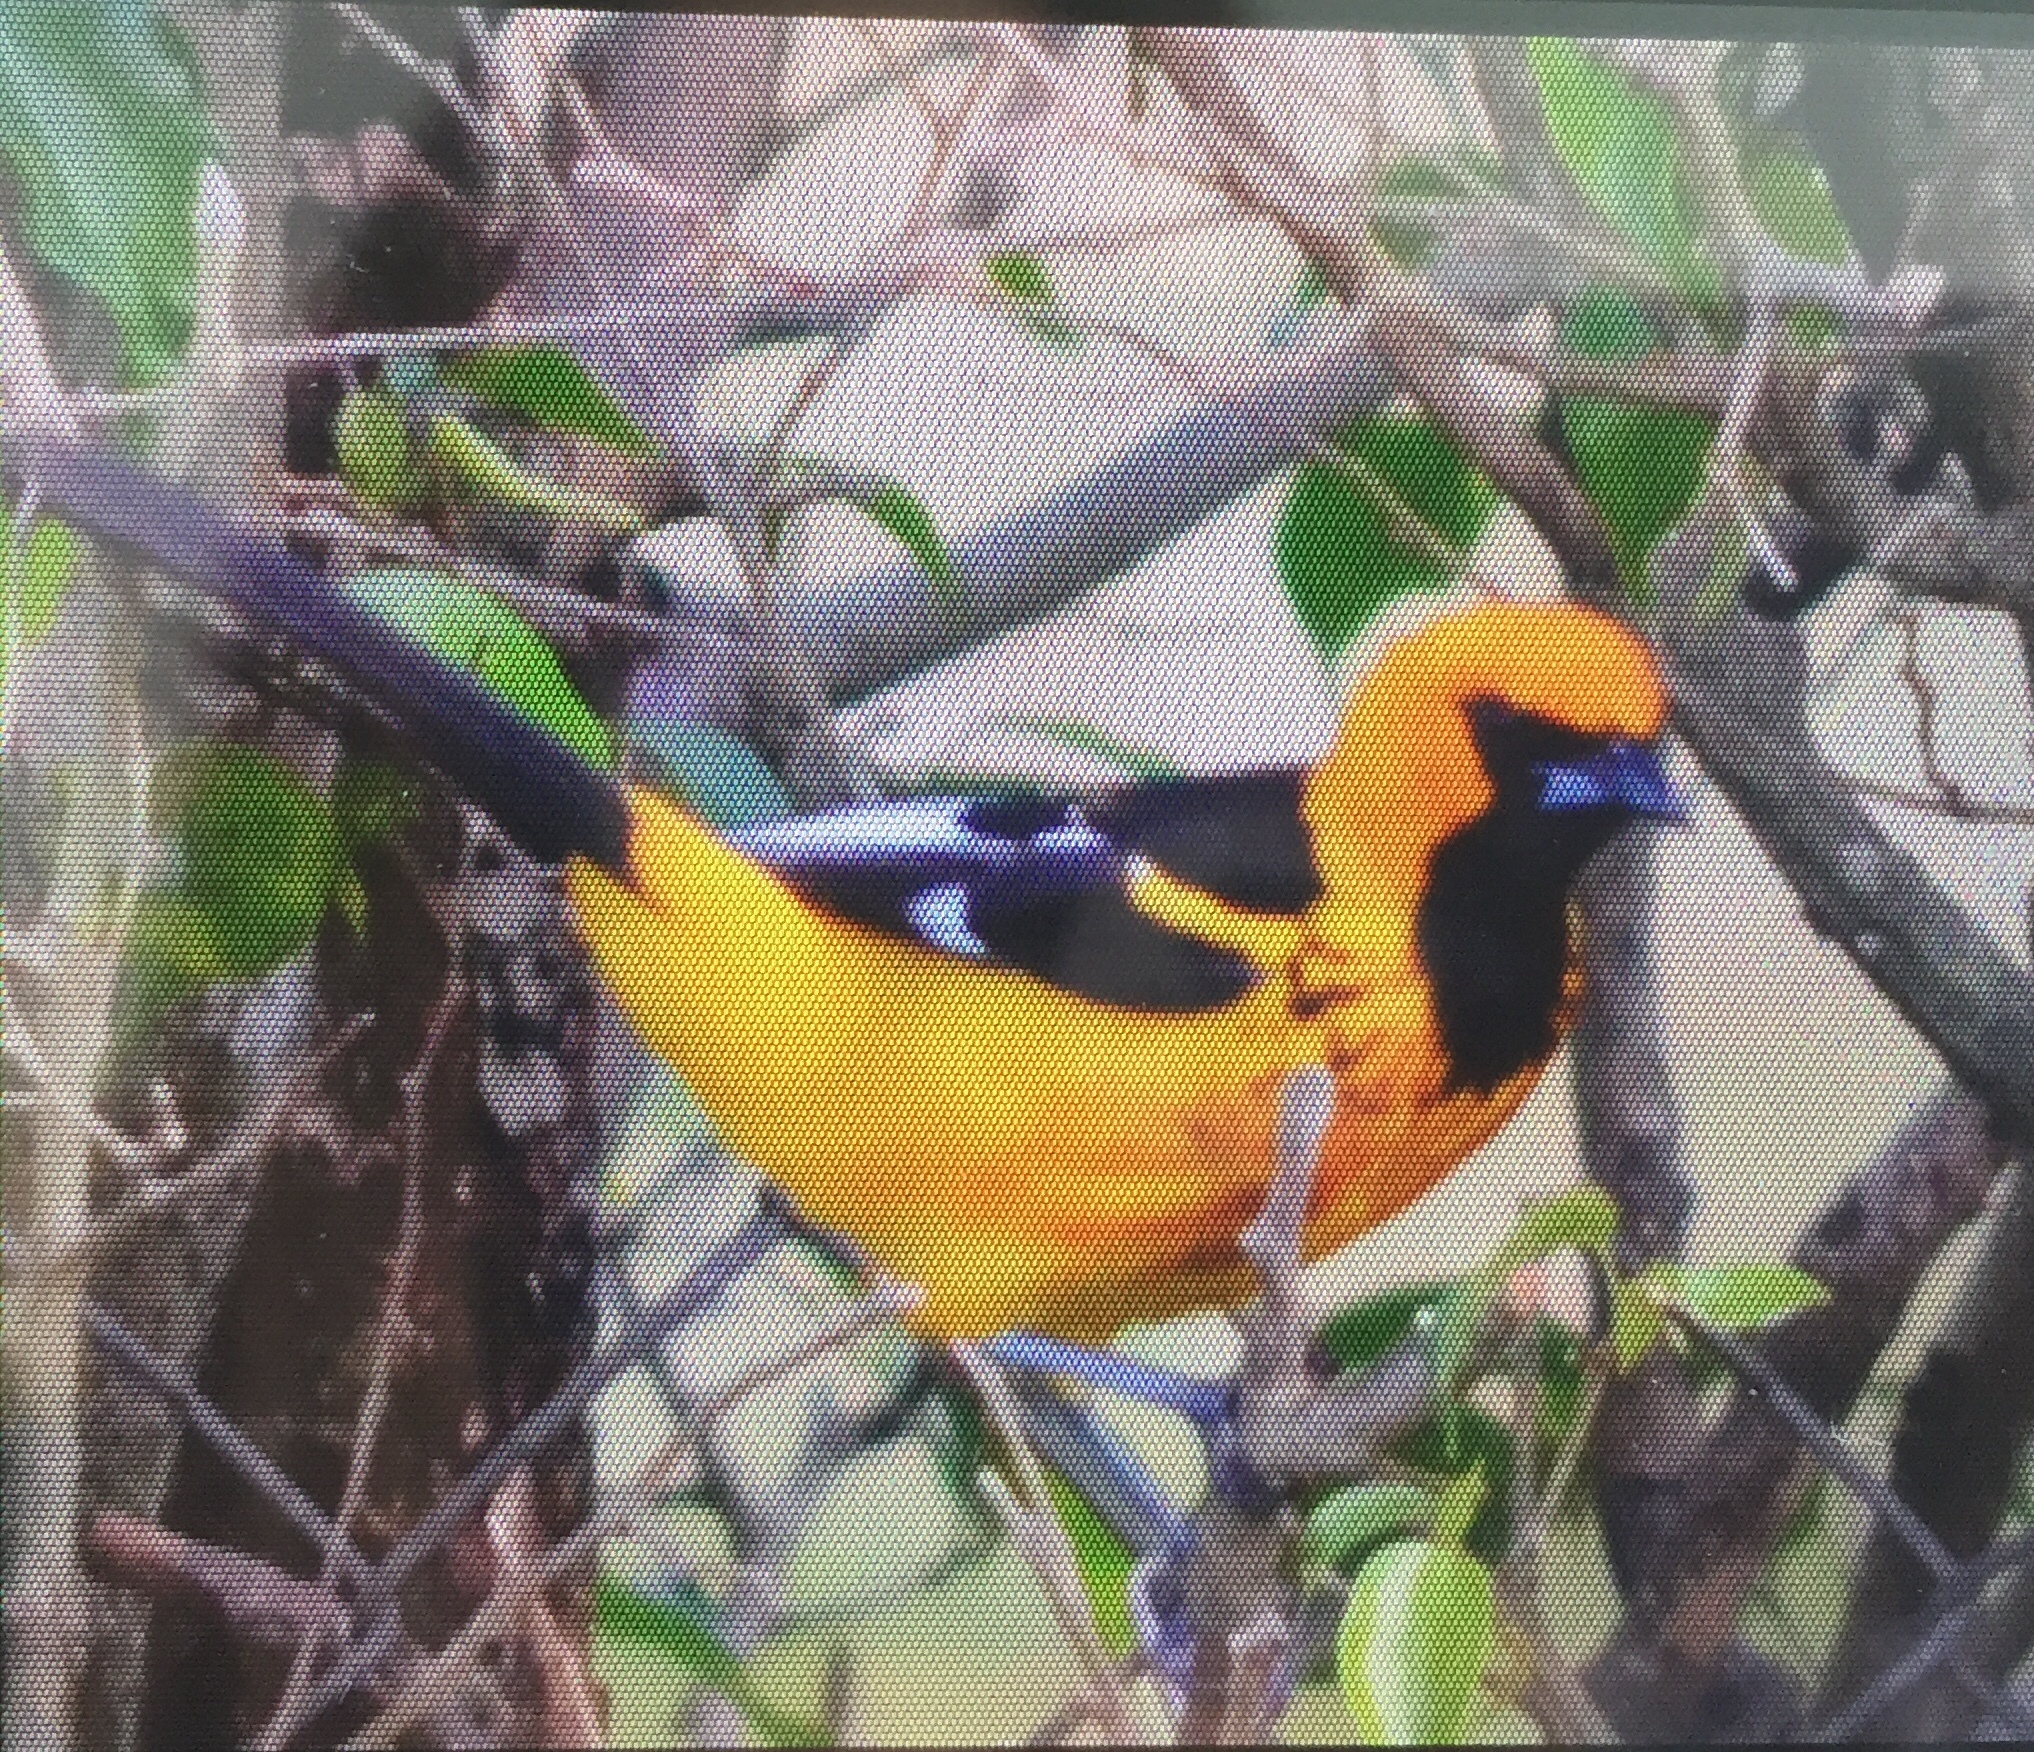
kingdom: Animalia
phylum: Chordata
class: Aves
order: Passeriformes
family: Icteridae
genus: Icterus
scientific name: Icterus pectoralis
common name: Spot-breasted oriole
